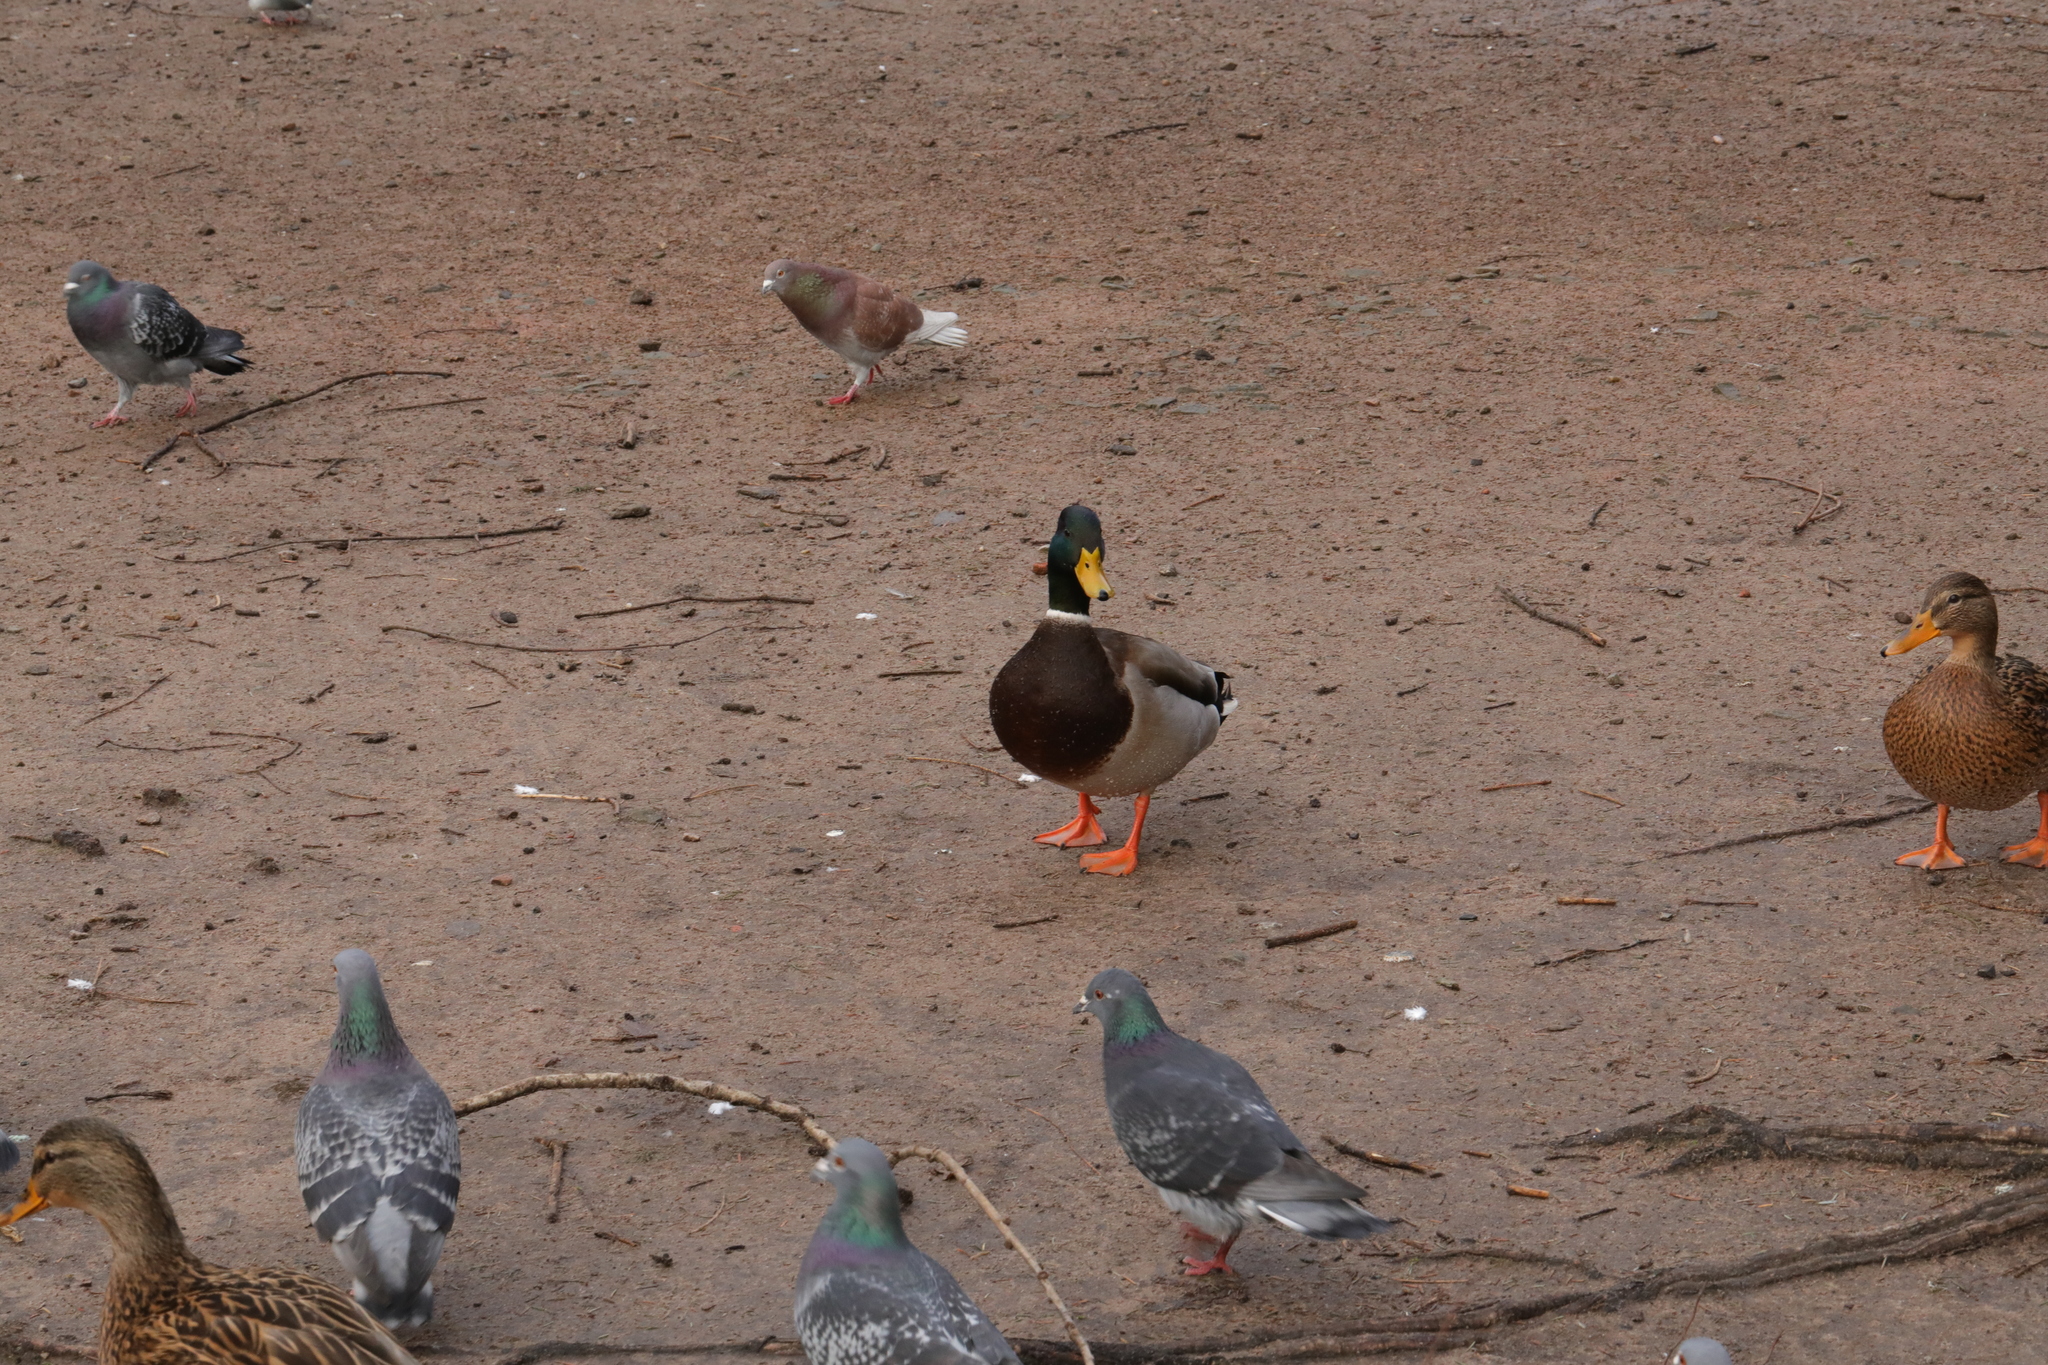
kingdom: Animalia
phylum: Chordata
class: Aves
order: Anseriformes
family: Anatidae
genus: Anas
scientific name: Anas platyrhynchos
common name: Mallard
